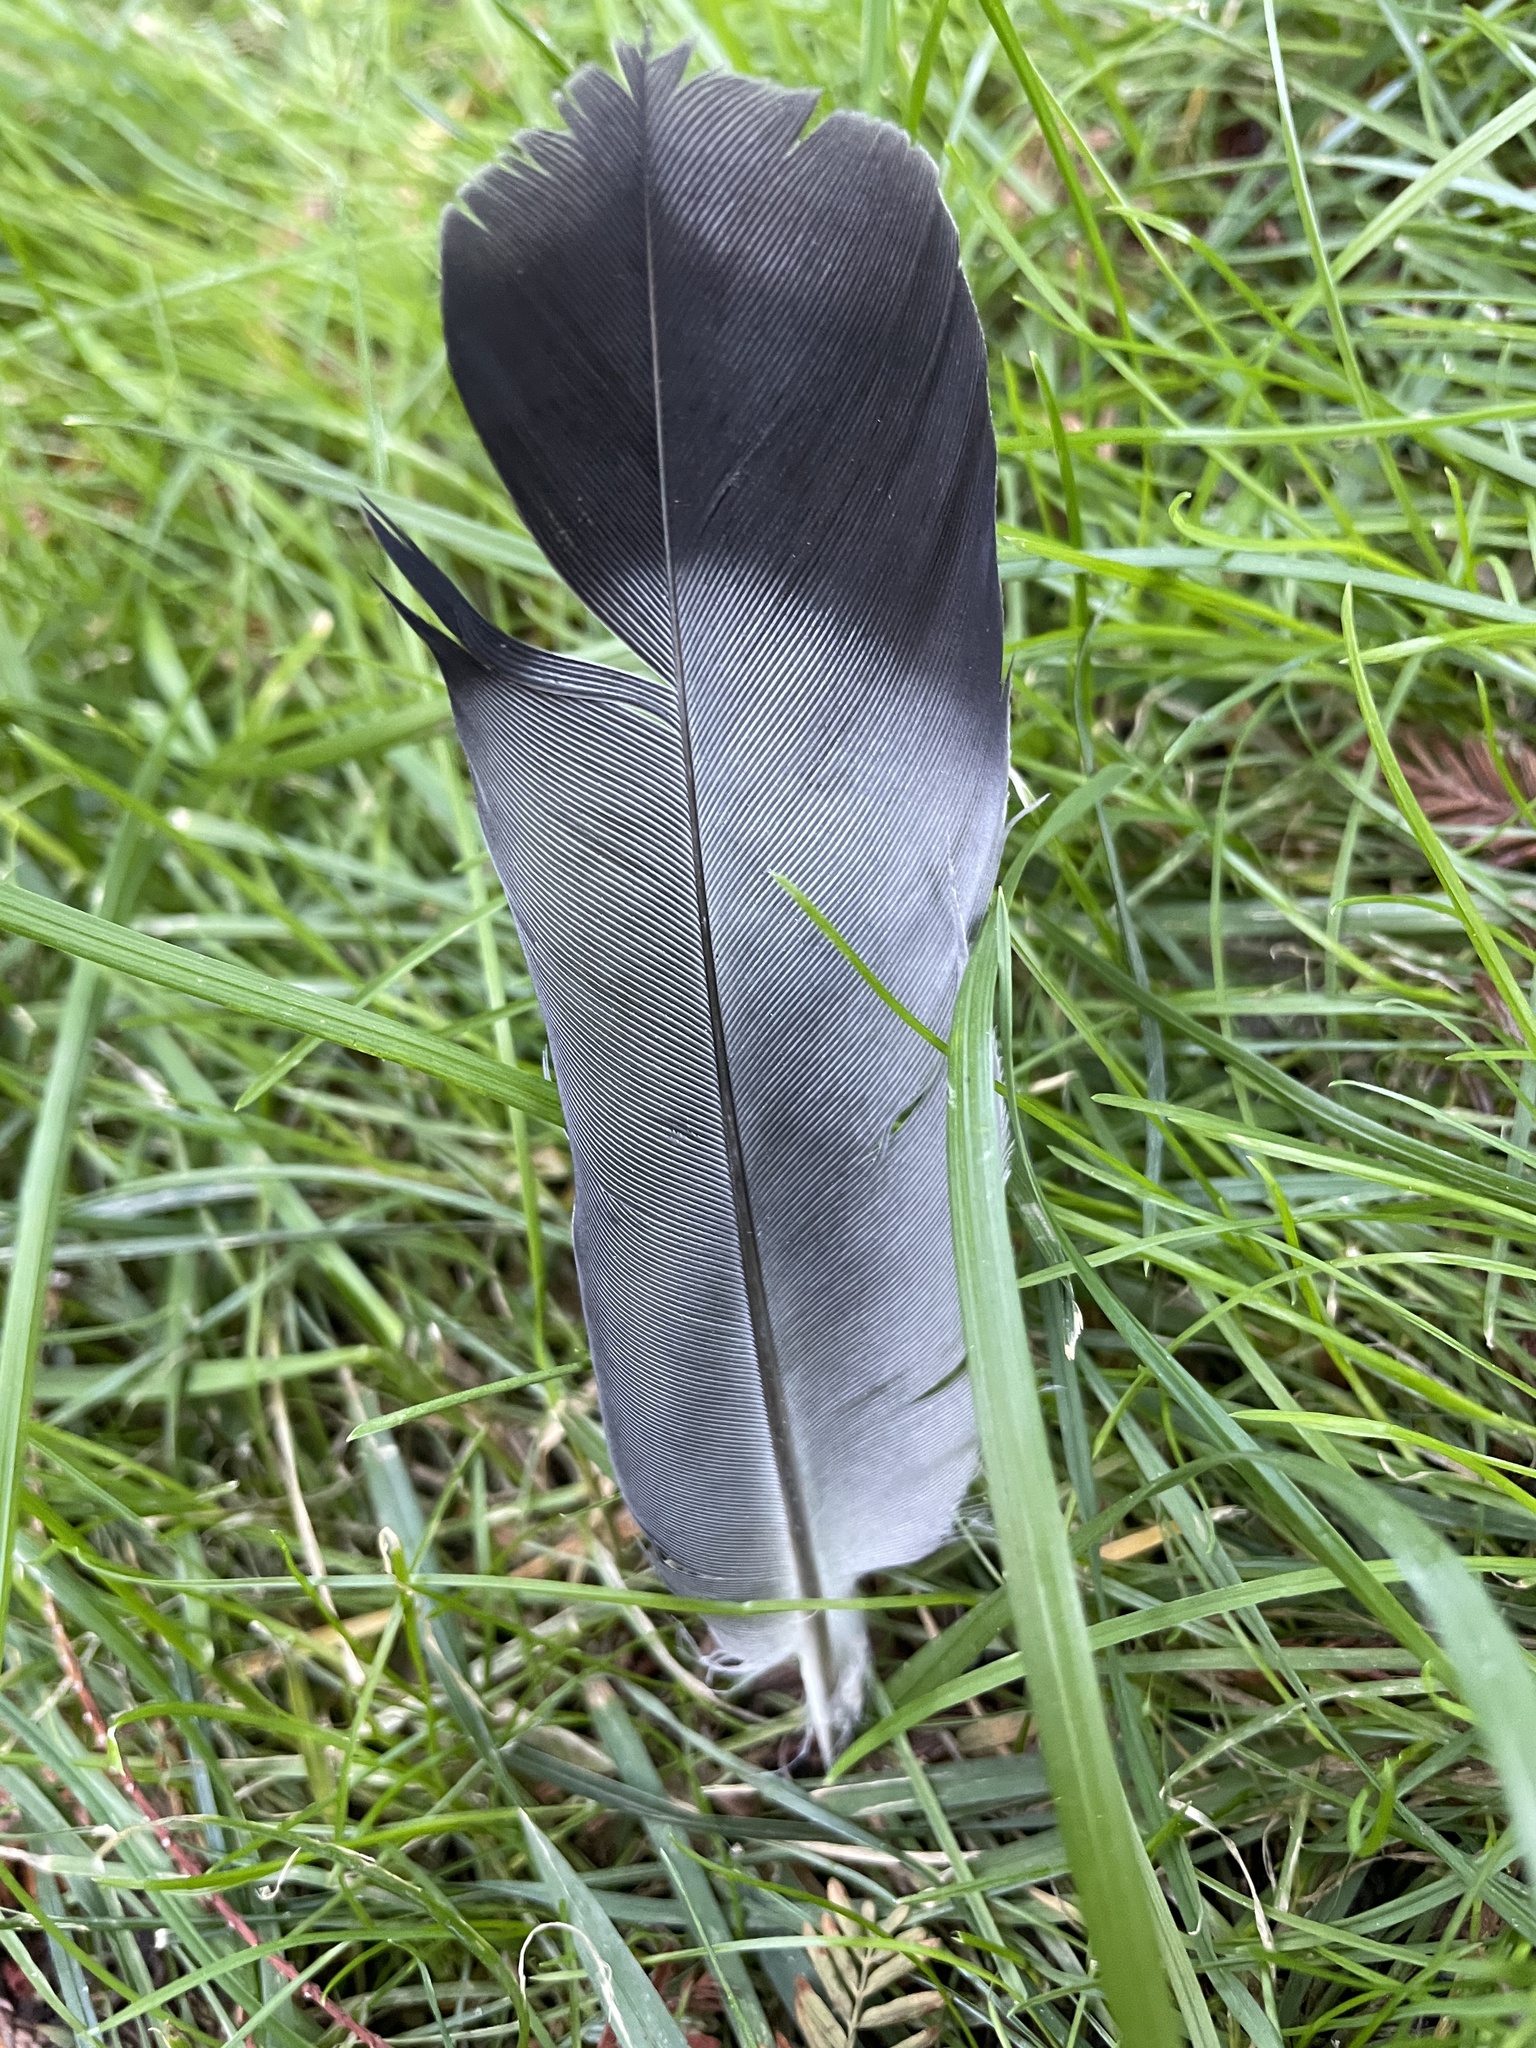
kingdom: Animalia
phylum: Chordata
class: Aves
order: Columbiformes
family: Columbidae
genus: Columba
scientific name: Columba livia
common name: Rock pigeon
